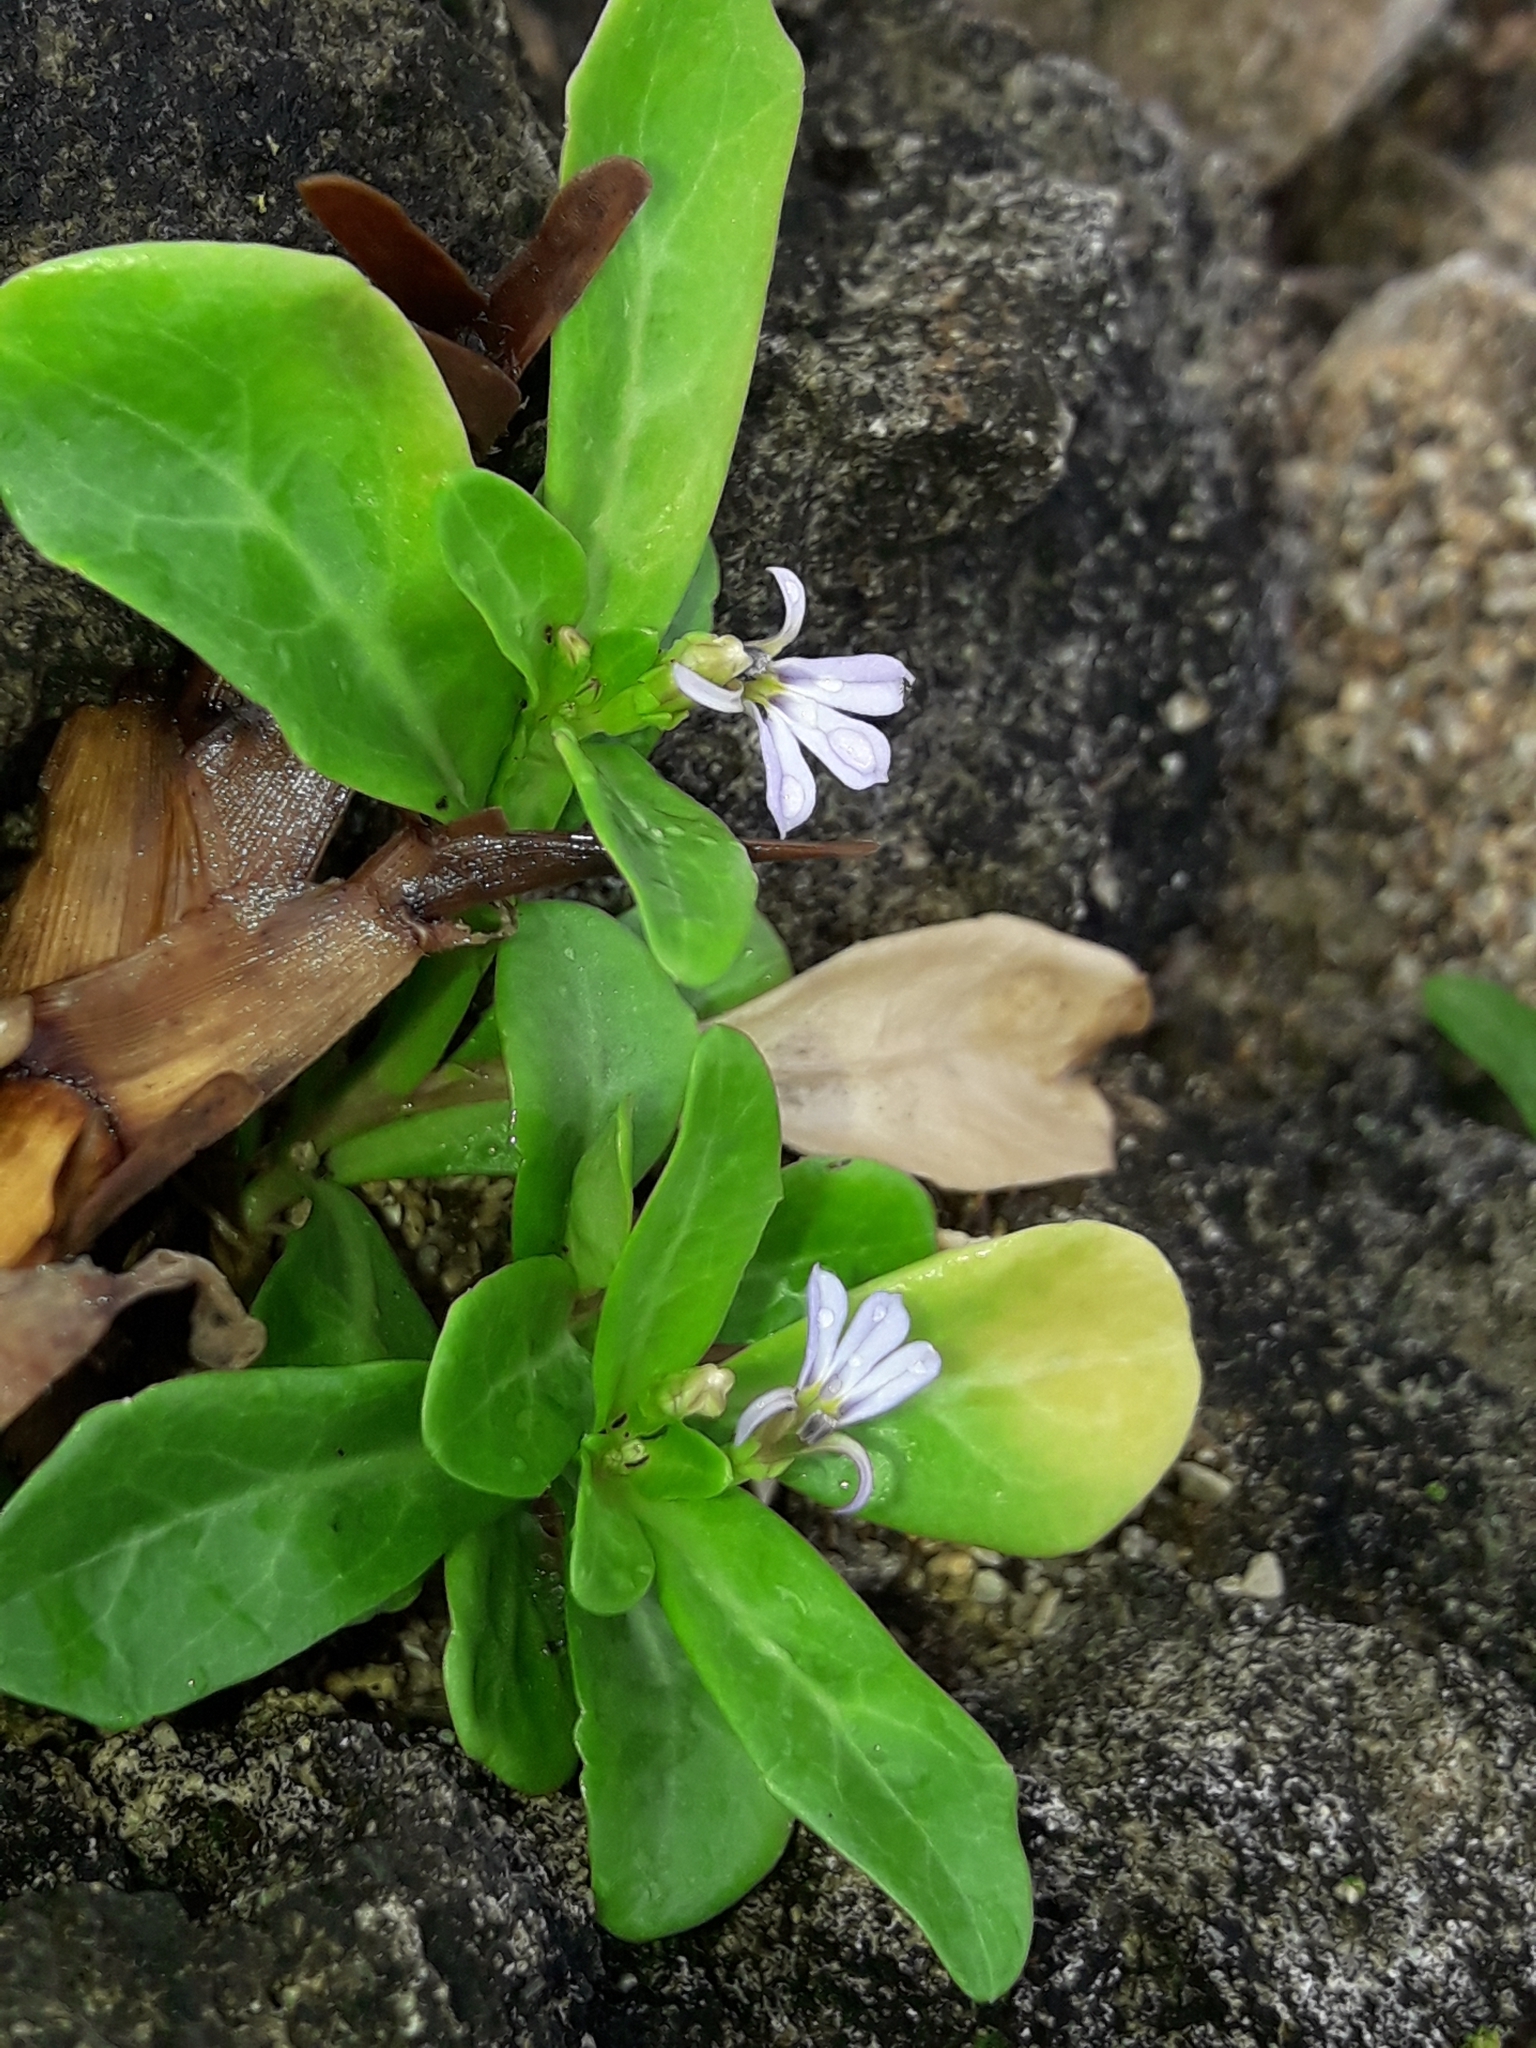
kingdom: Plantae
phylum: Tracheophyta
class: Magnoliopsida
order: Asterales
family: Campanulaceae
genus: Lobelia
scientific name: Lobelia anceps
